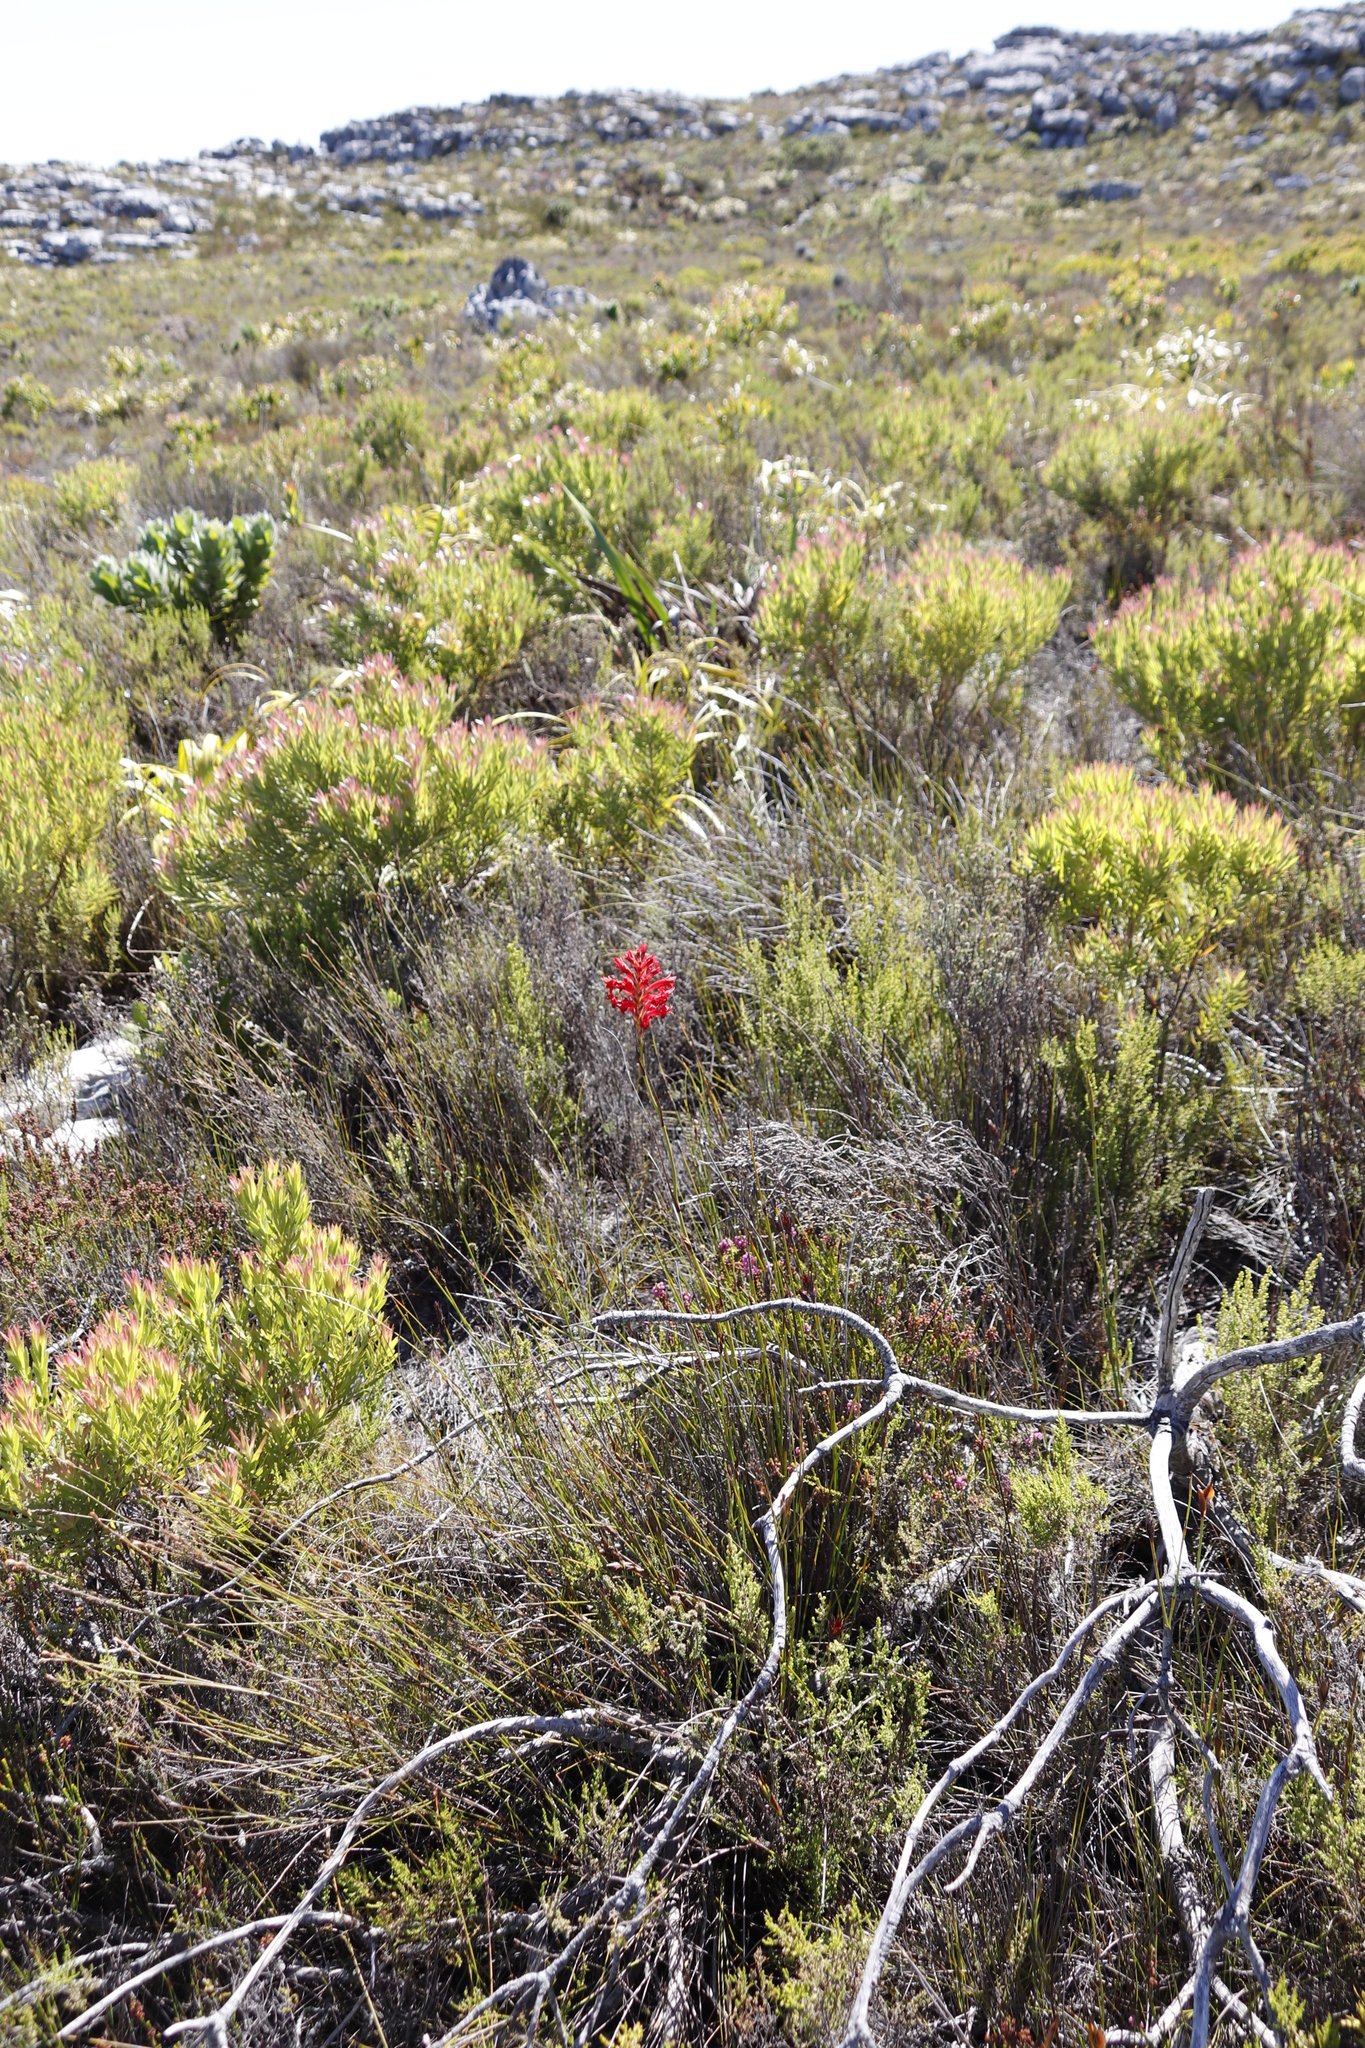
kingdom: Plantae
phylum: Tracheophyta
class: Liliopsida
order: Asparagales
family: Iridaceae
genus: Tritoniopsis
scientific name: Tritoniopsis triticea
